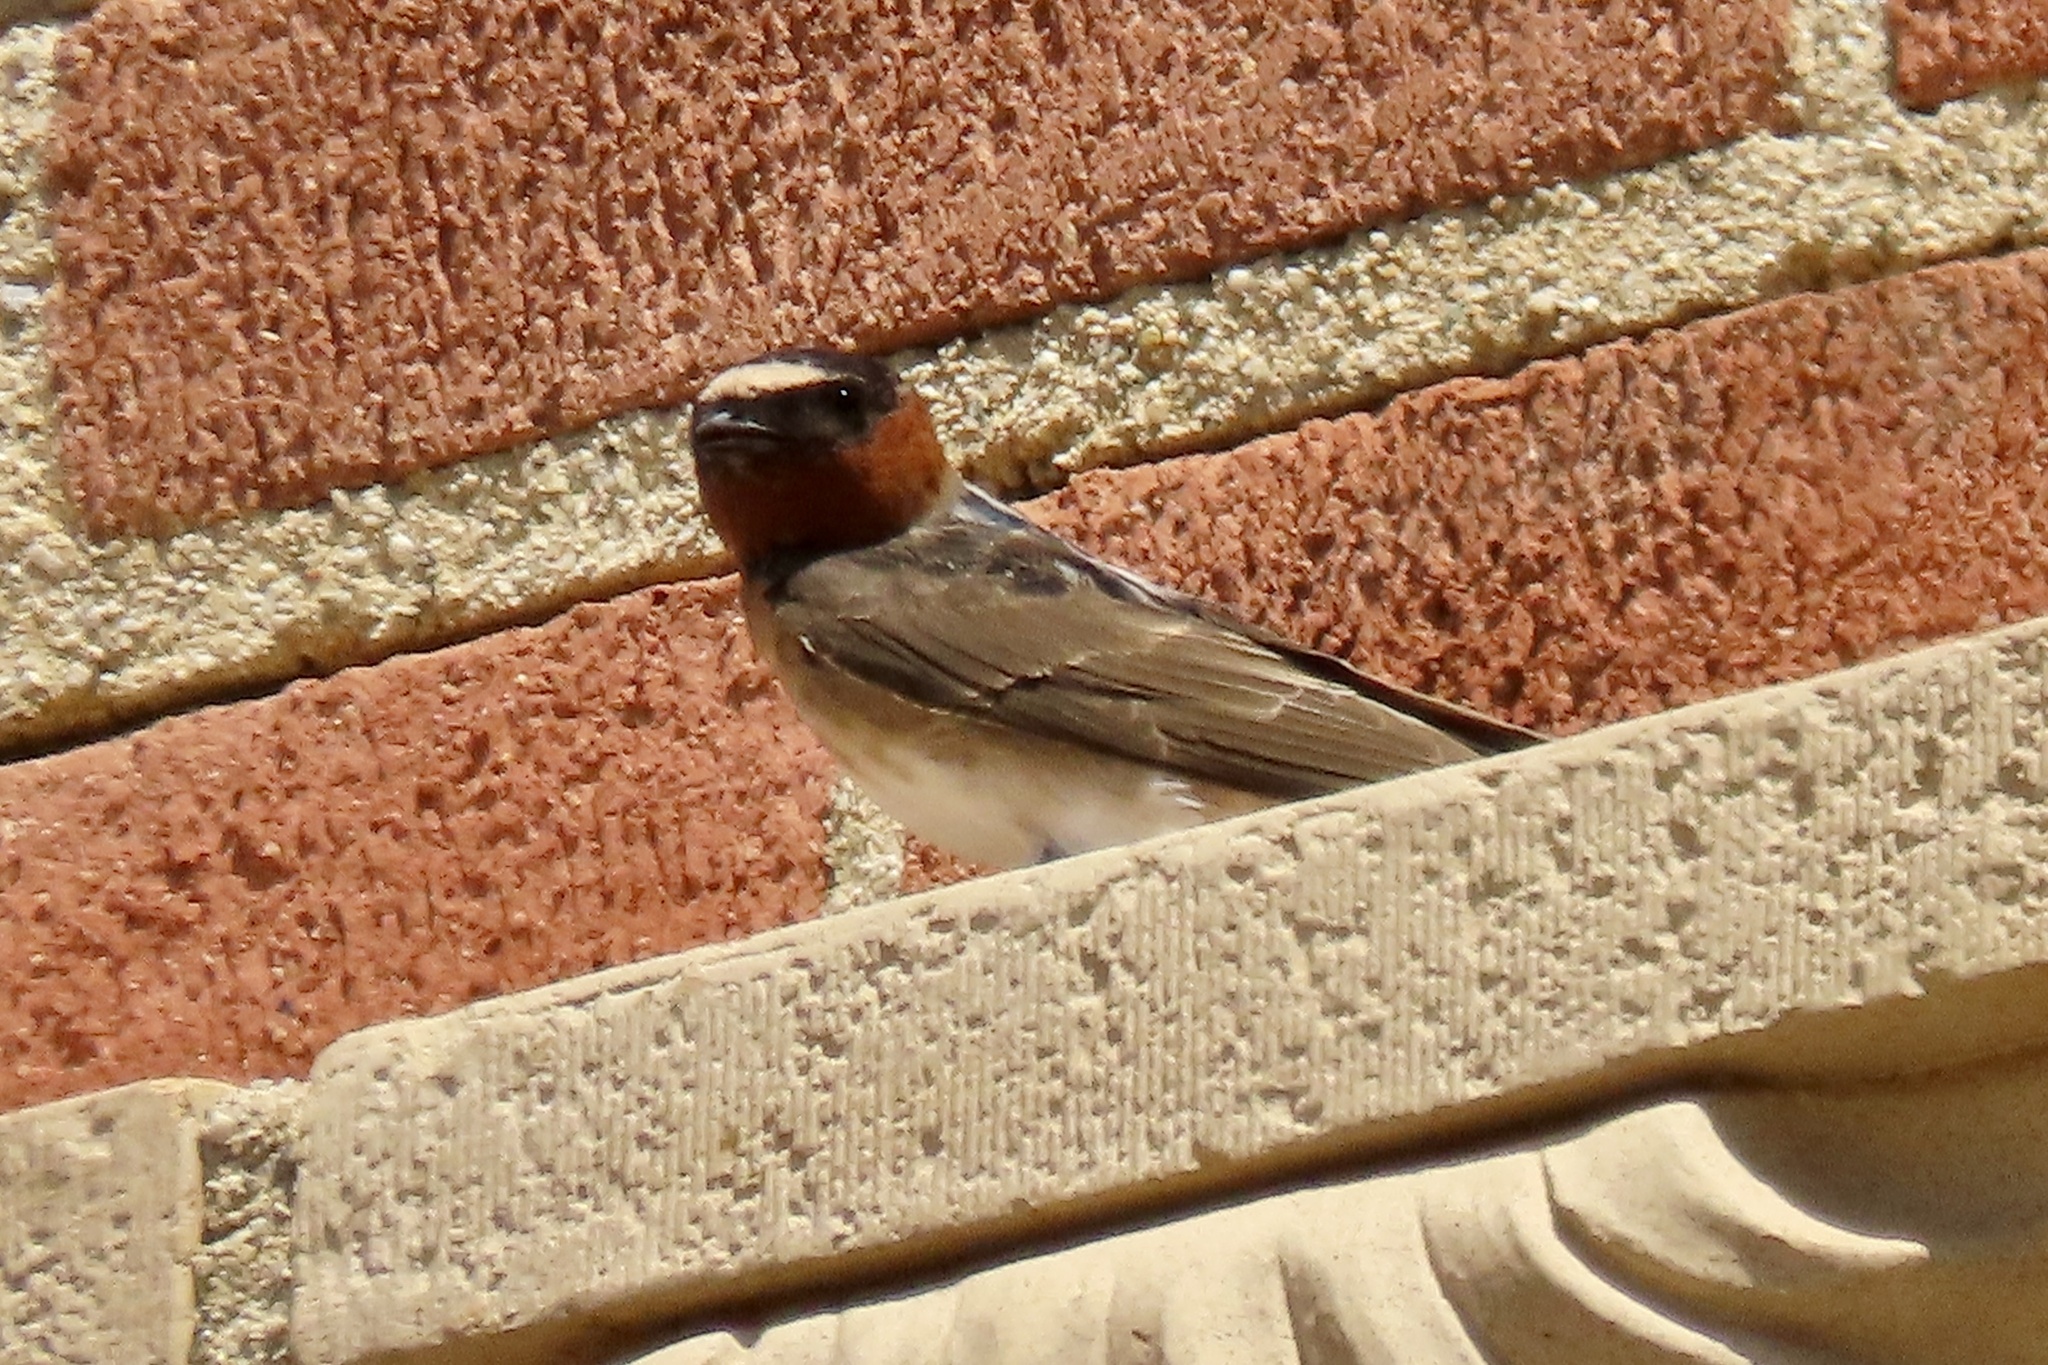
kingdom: Animalia
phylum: Chordata
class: Aves
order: Passeriformes
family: Hirundinidae
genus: Petrochelidon
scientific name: Petrochelidon pyrrhonota
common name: American cliff swallow
